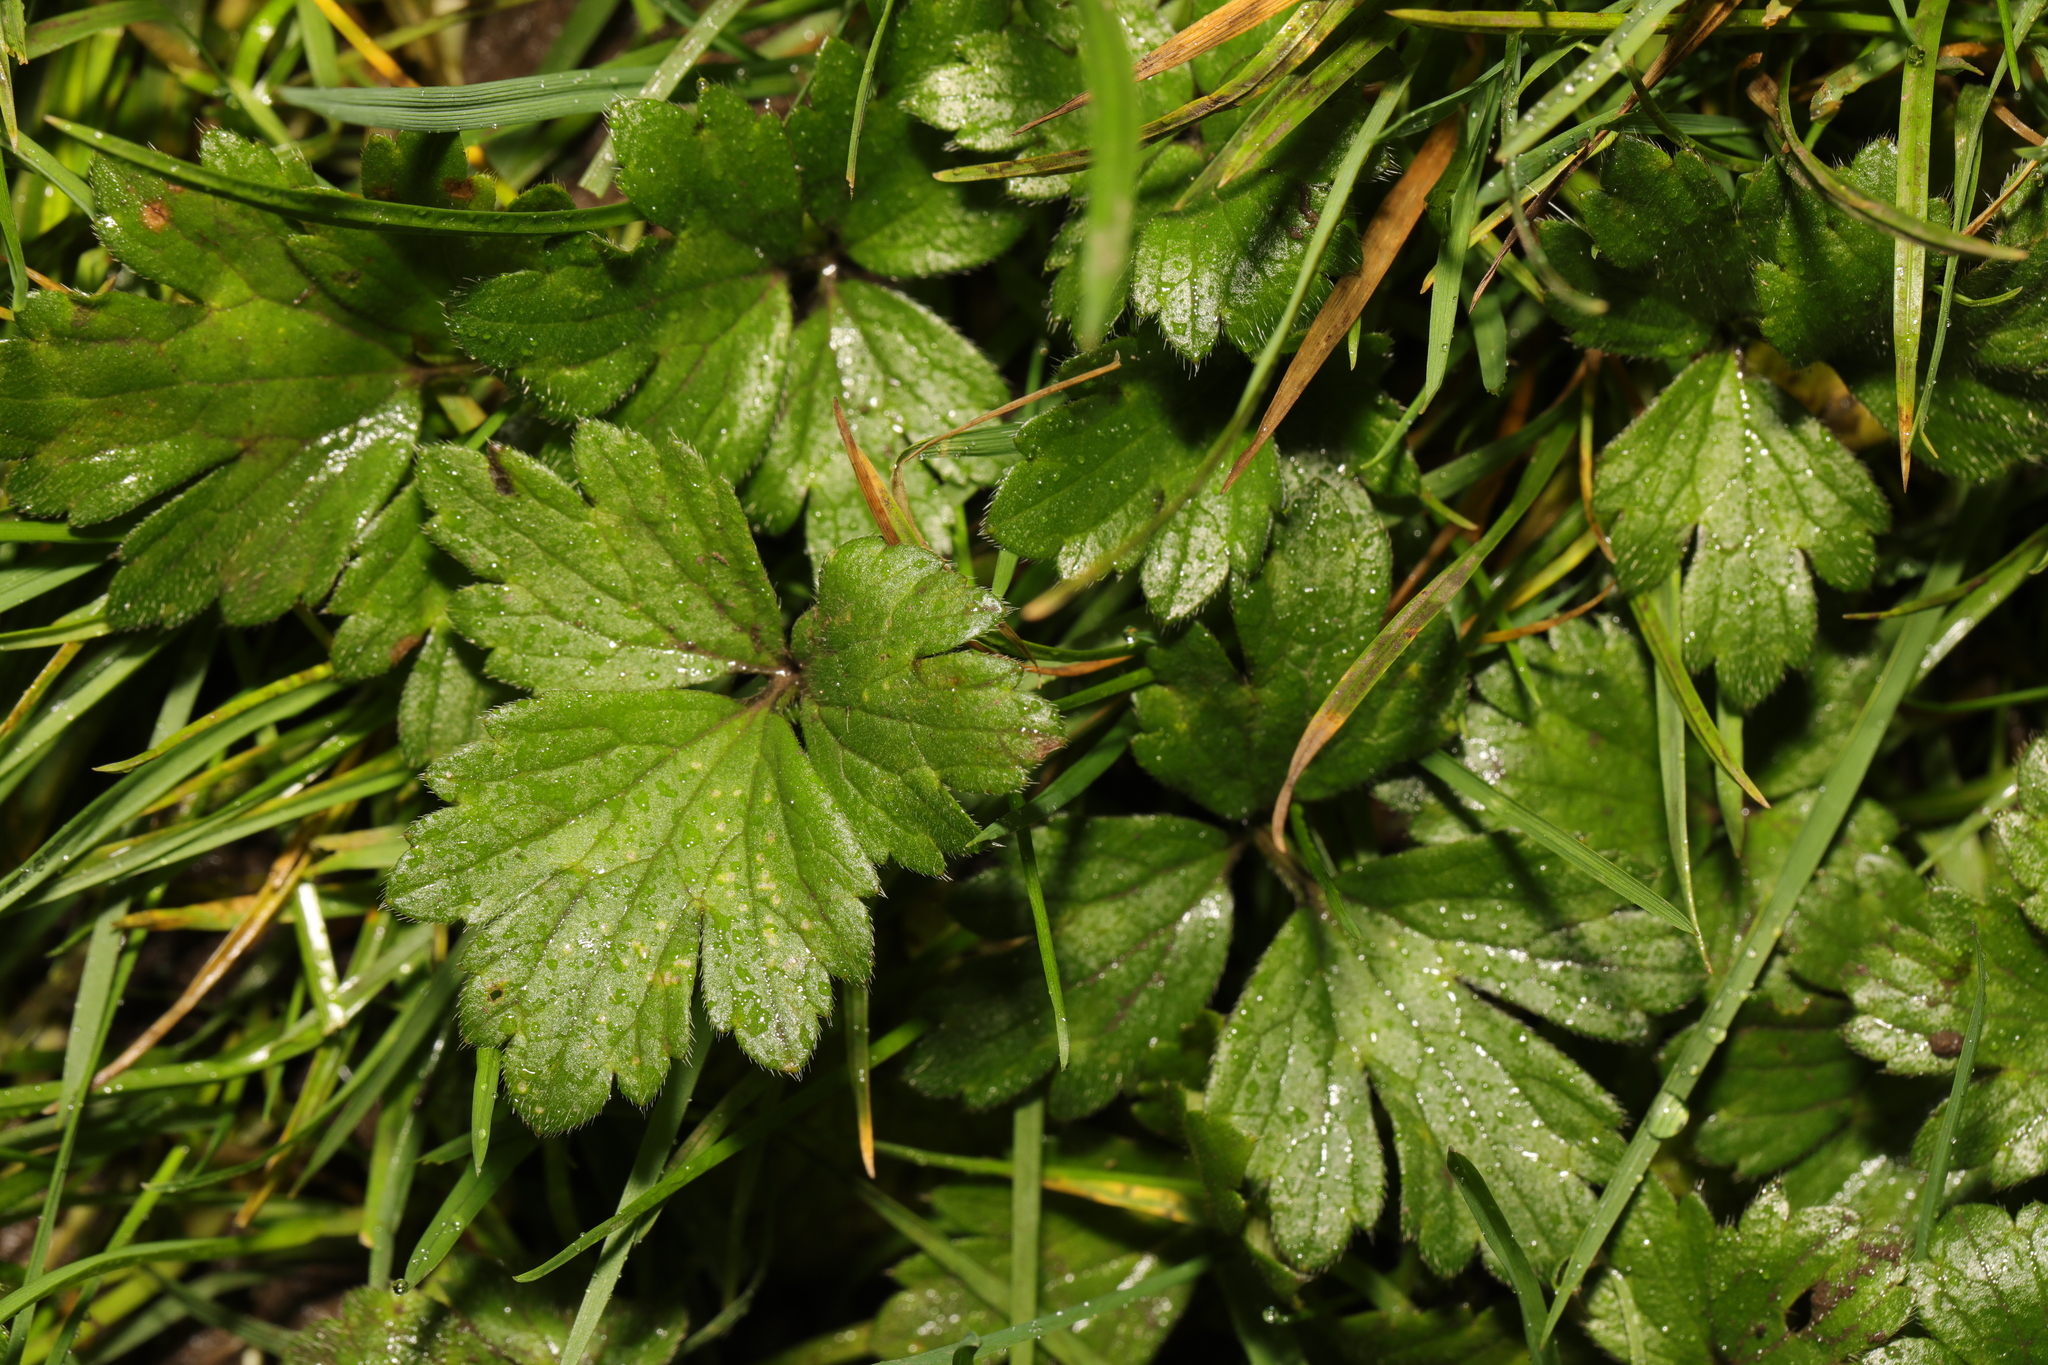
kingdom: Plantae
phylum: Tracheophyta
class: Magnoliopsida
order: Ranunculales
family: Ranunculaceae
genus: Ranunculus
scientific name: Ranunculus repens
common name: Creeping buttercup
